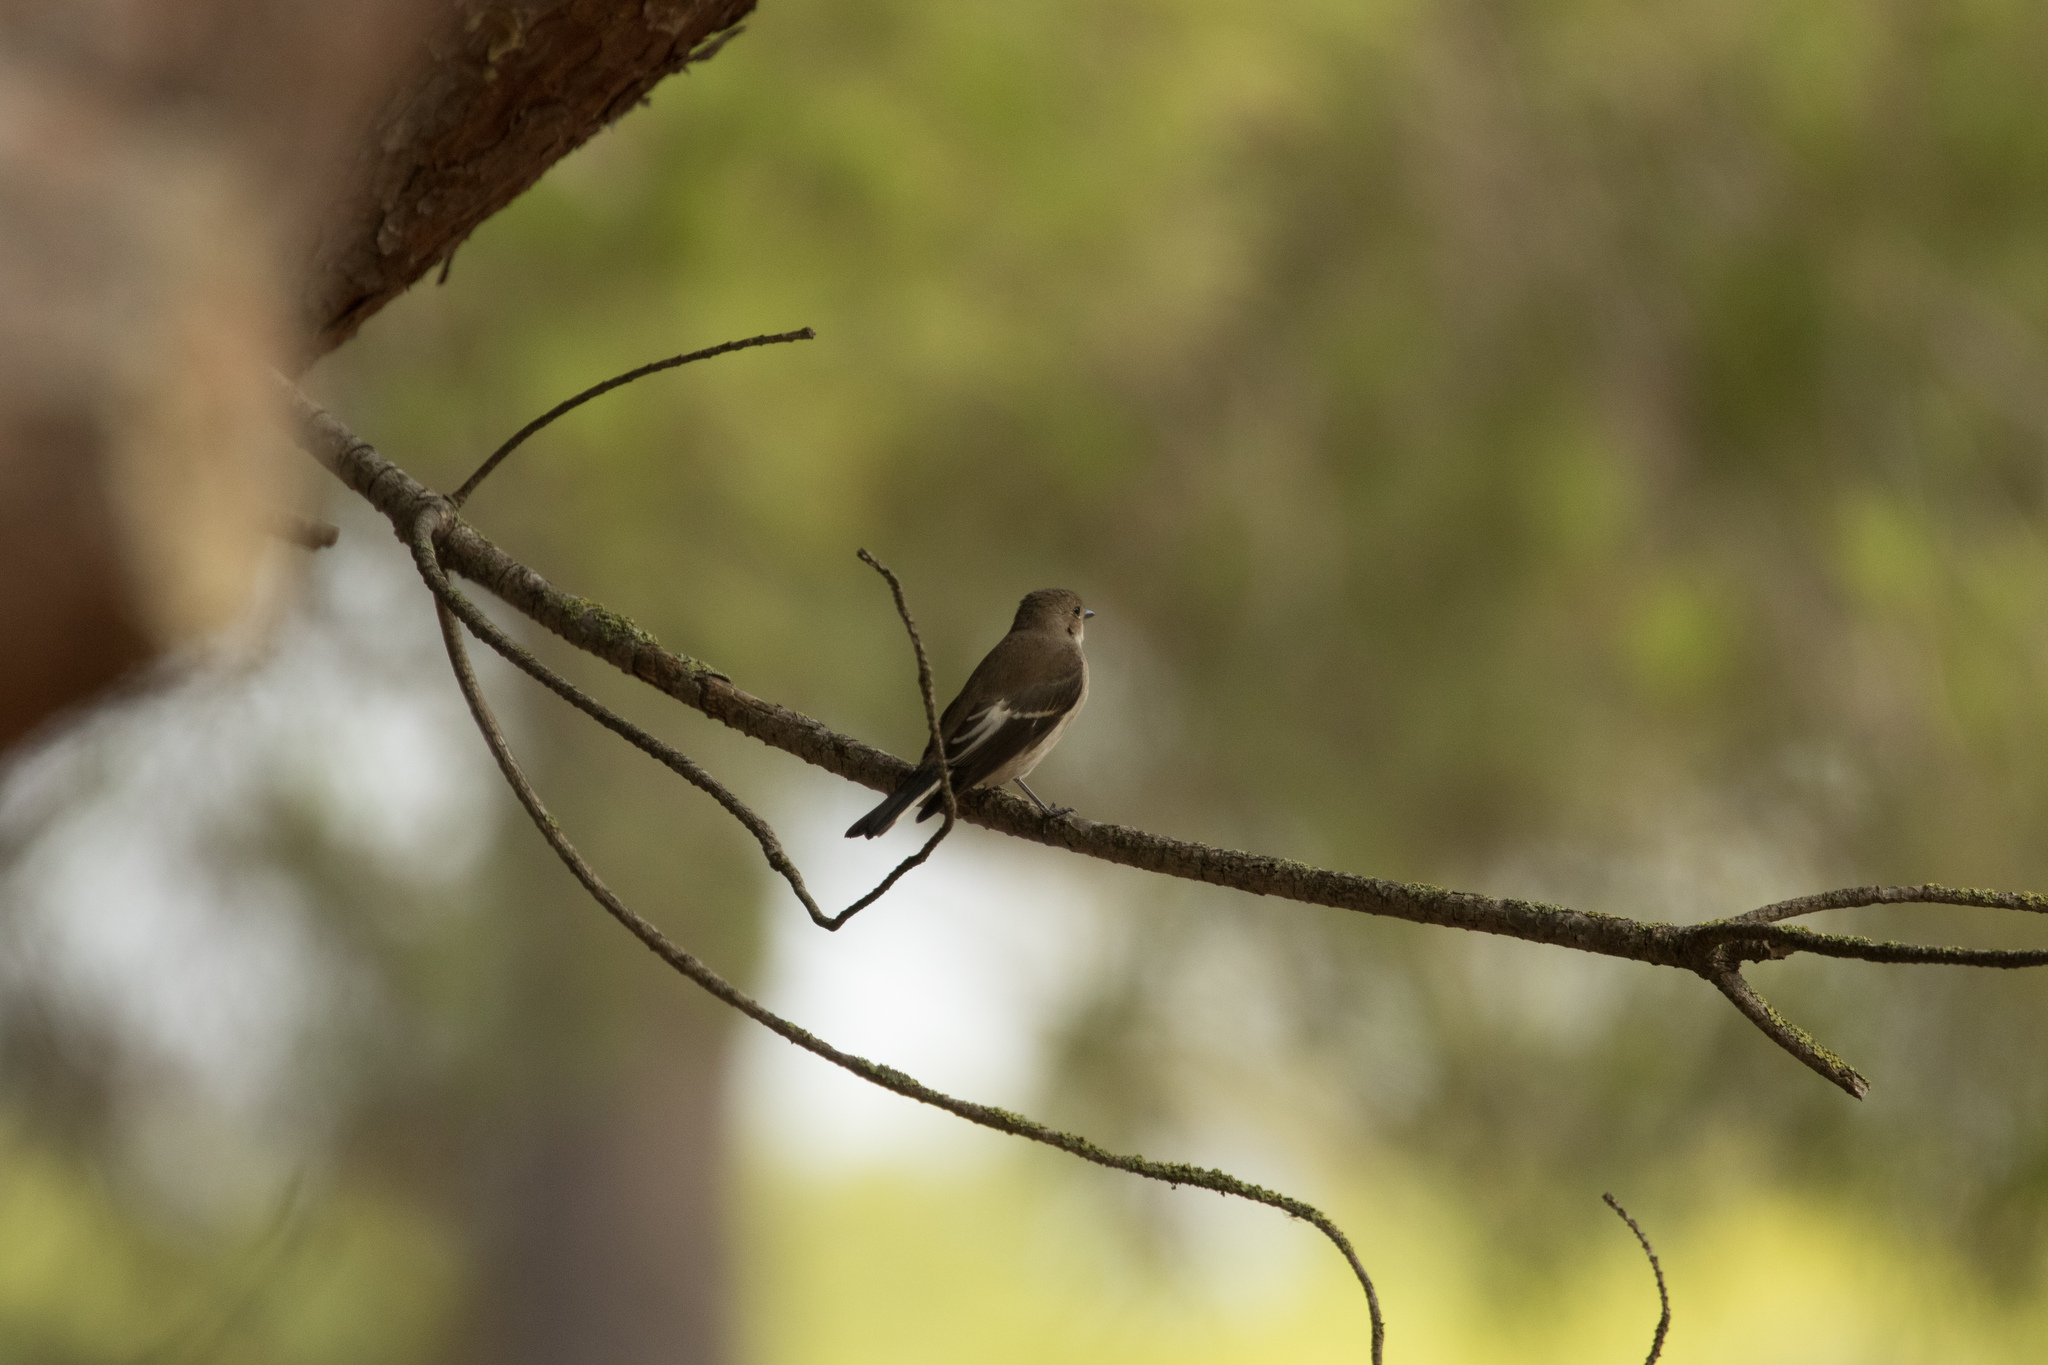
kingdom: Animalia
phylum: Chordata
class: Aves
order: Passeriformes
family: Muscicapidae
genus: Ficedula
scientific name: Ficedula hypoleuca
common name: European pied flycatcher
